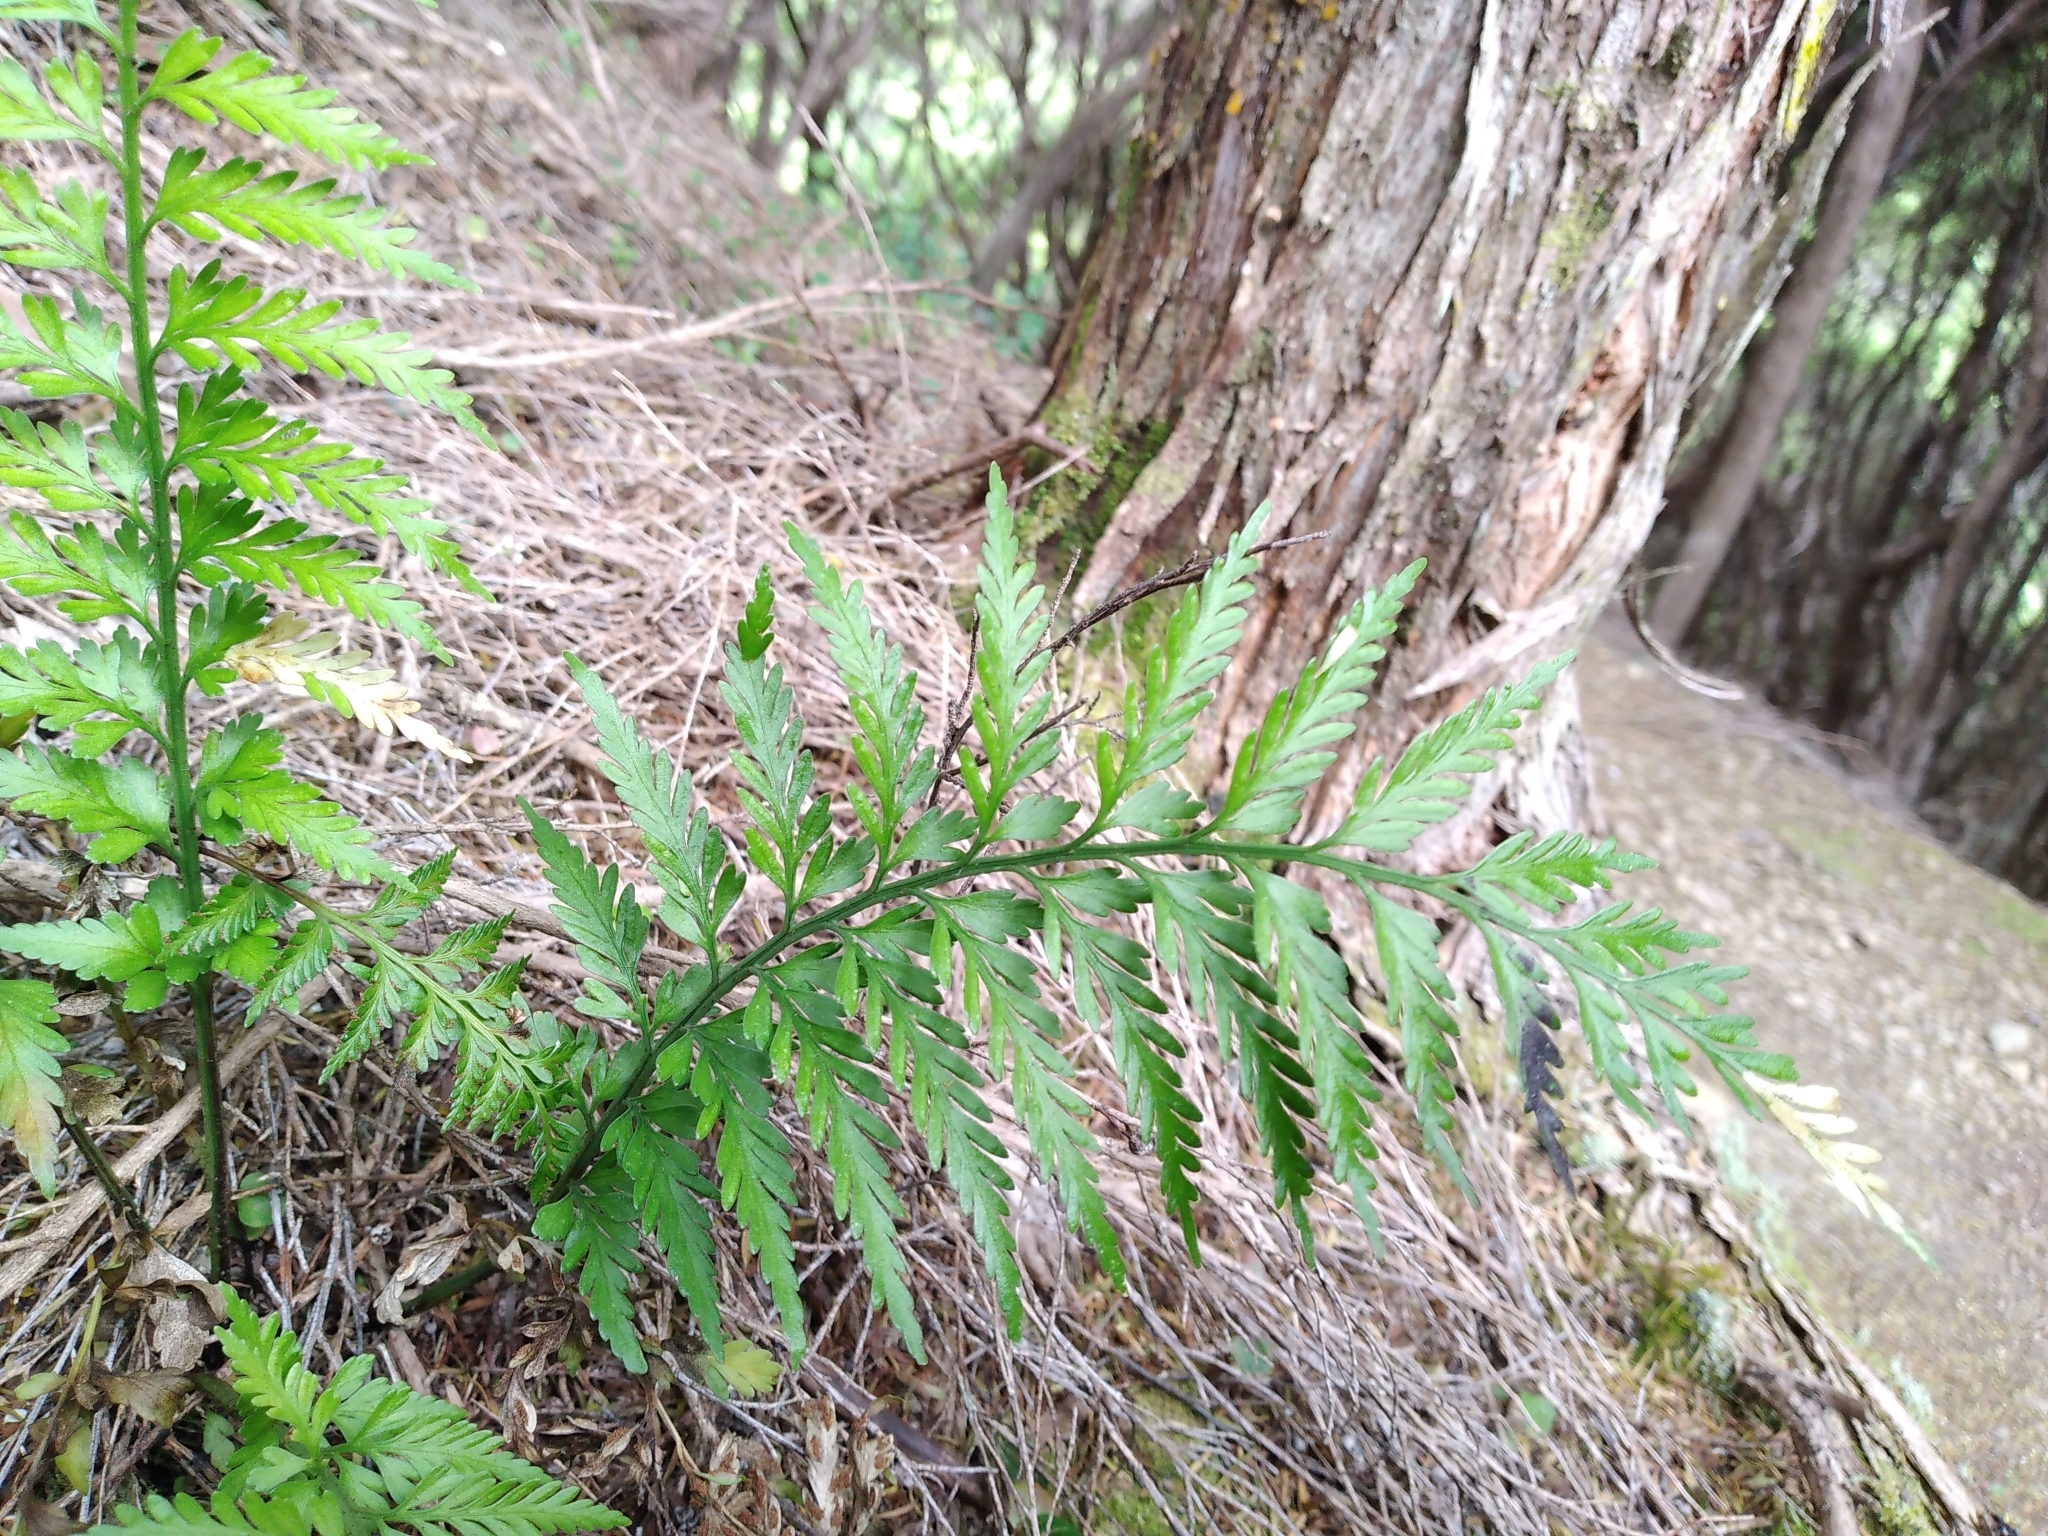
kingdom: Plantae
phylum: Tracheophyta
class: Polypodiopsida
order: Polypodiales
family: Aspleniaceae
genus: Asplenium
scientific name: Asplenium appendiculatum
